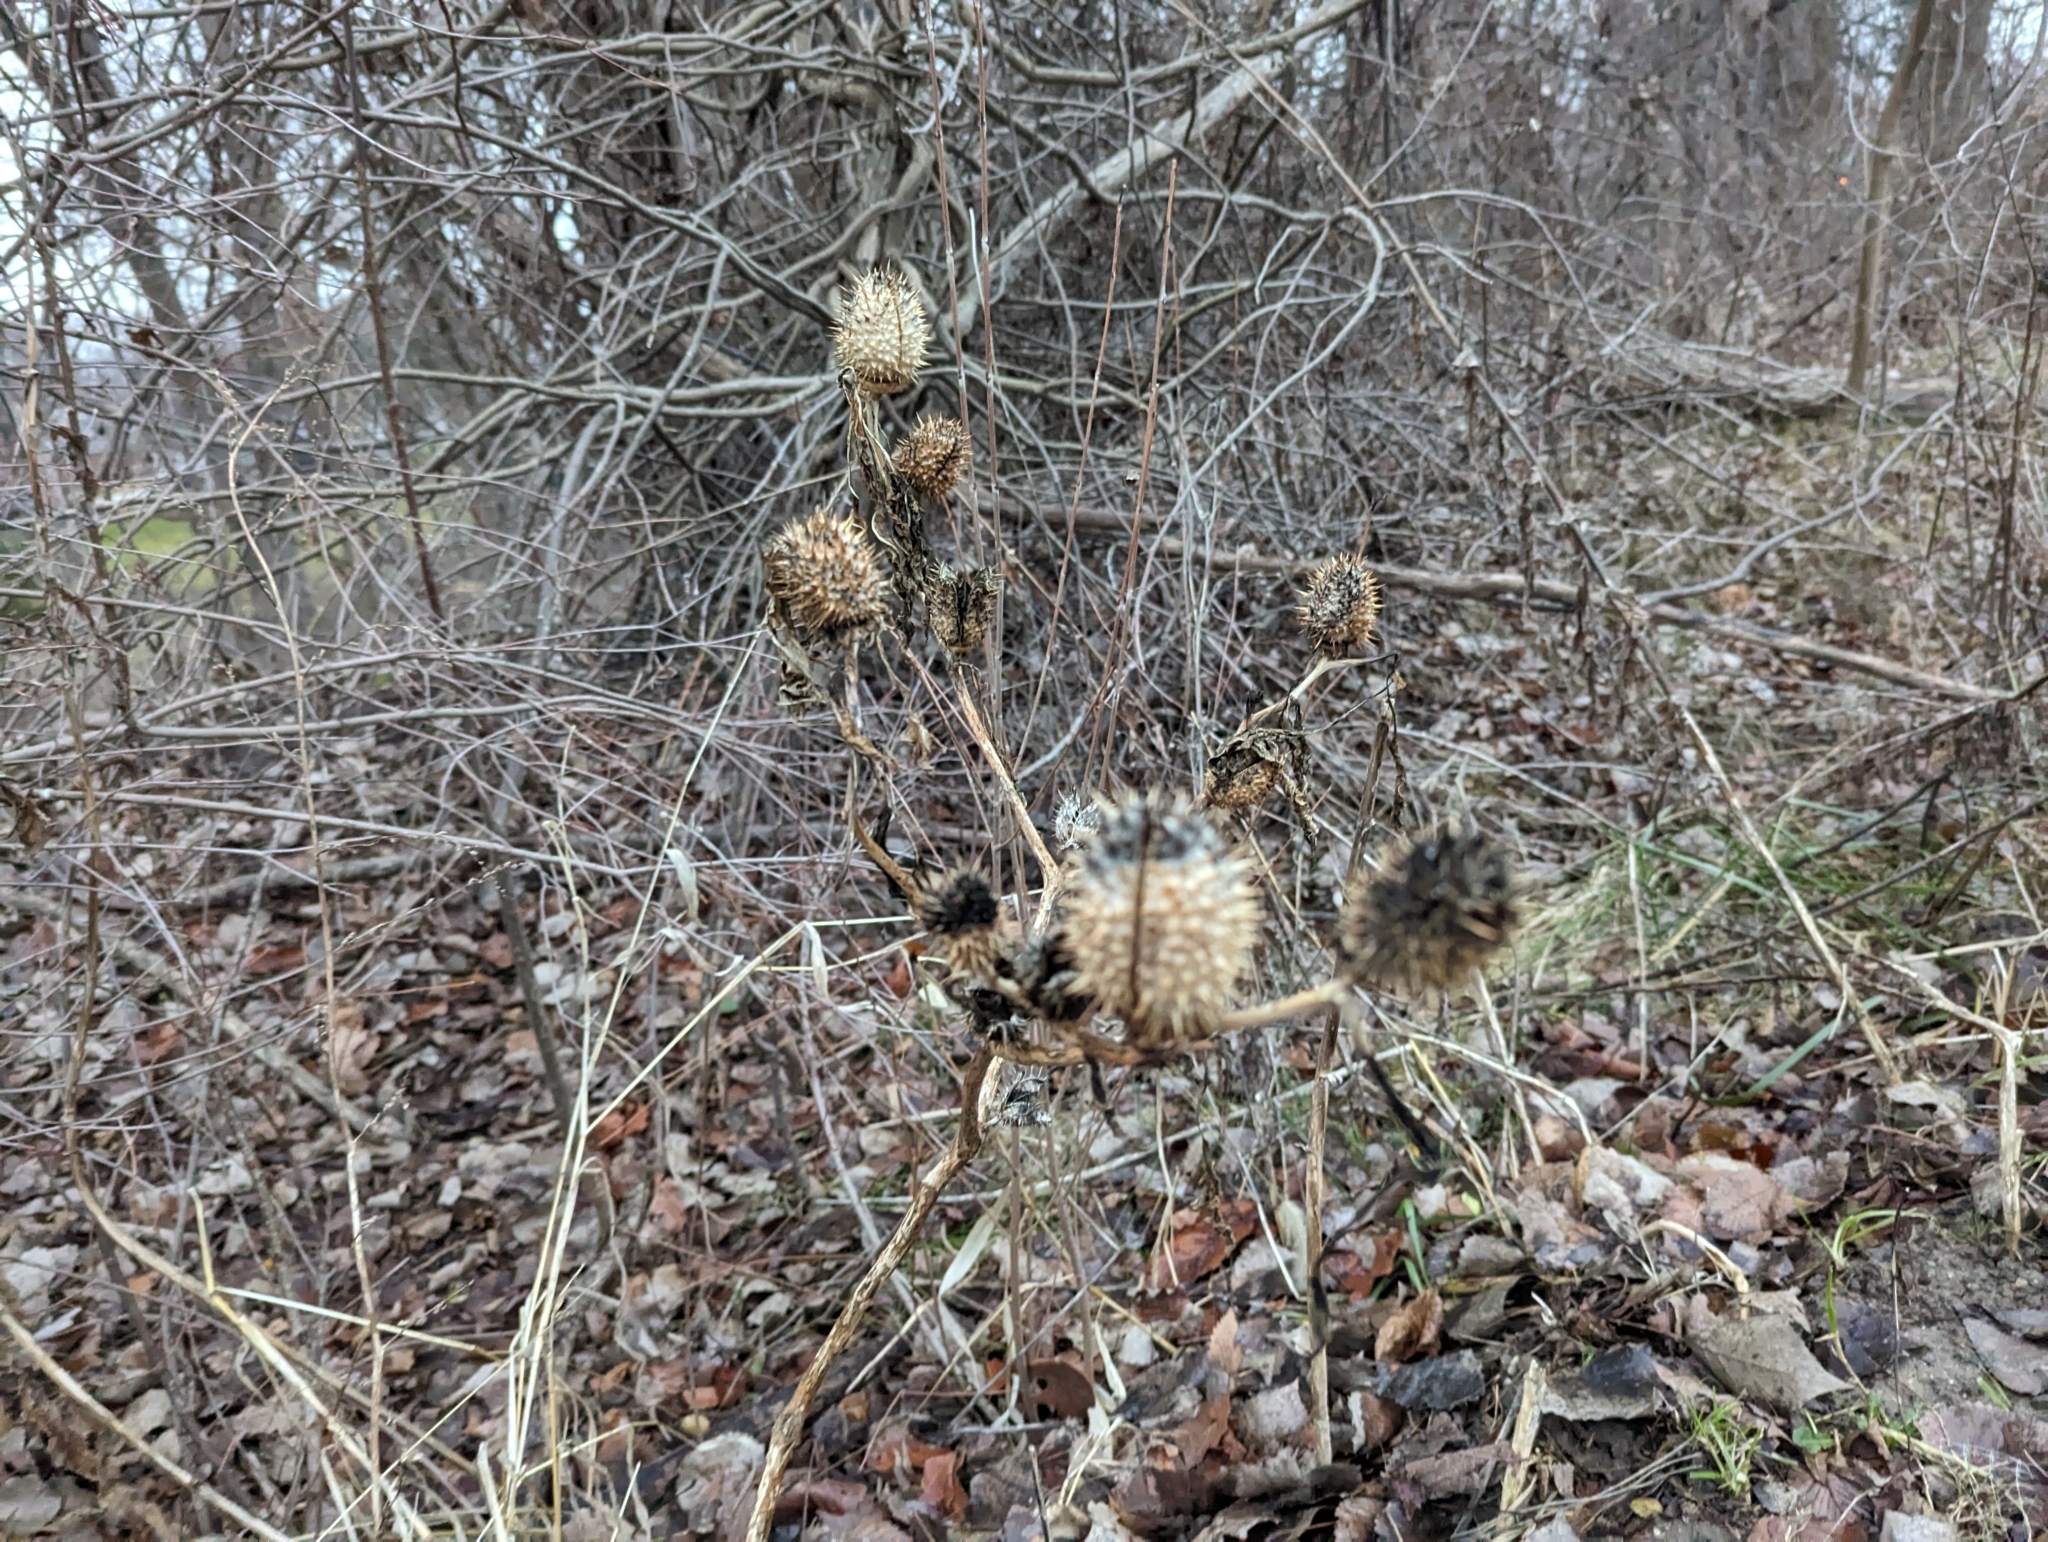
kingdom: Plantae
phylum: Tracheophyta
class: Magnoliopsida
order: Solanales
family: Solanaceae
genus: Datura
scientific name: Datura stramonium
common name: Thorn-apple
